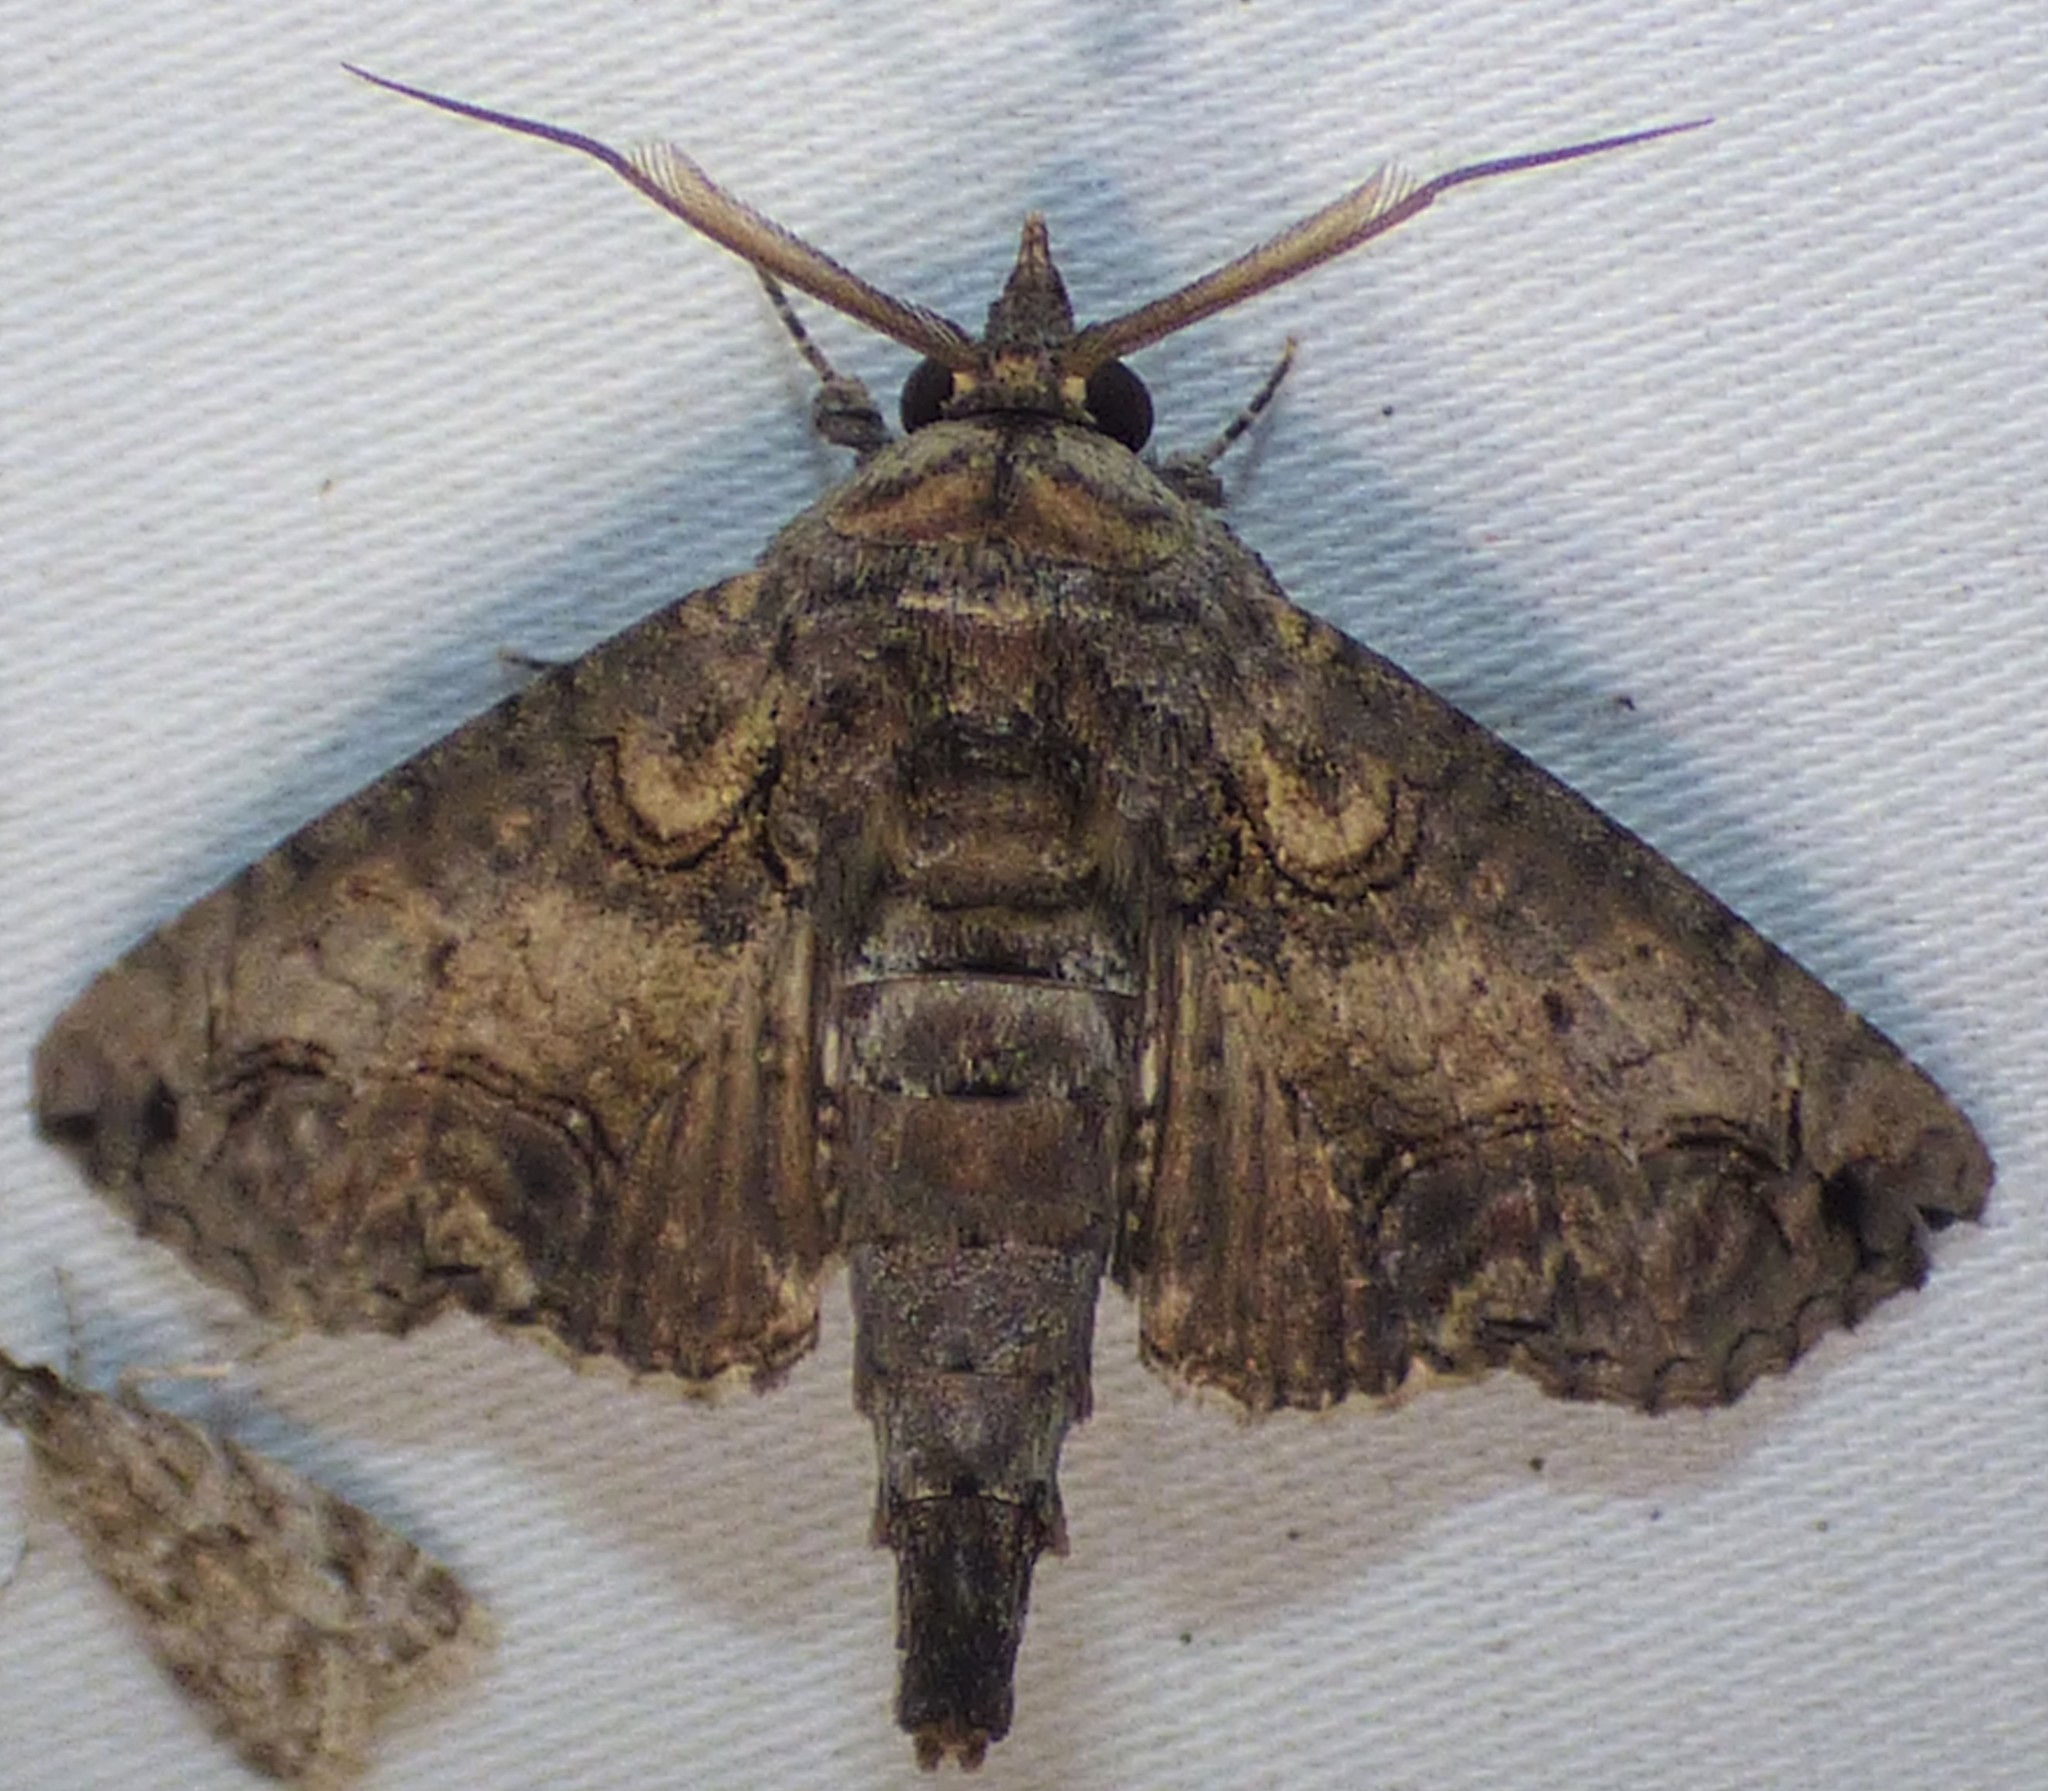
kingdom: Animalia
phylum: Arthropoda
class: Insecta
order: Lepidoptera
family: Euteliidae
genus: Paectes
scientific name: Paectes abrostoloides
